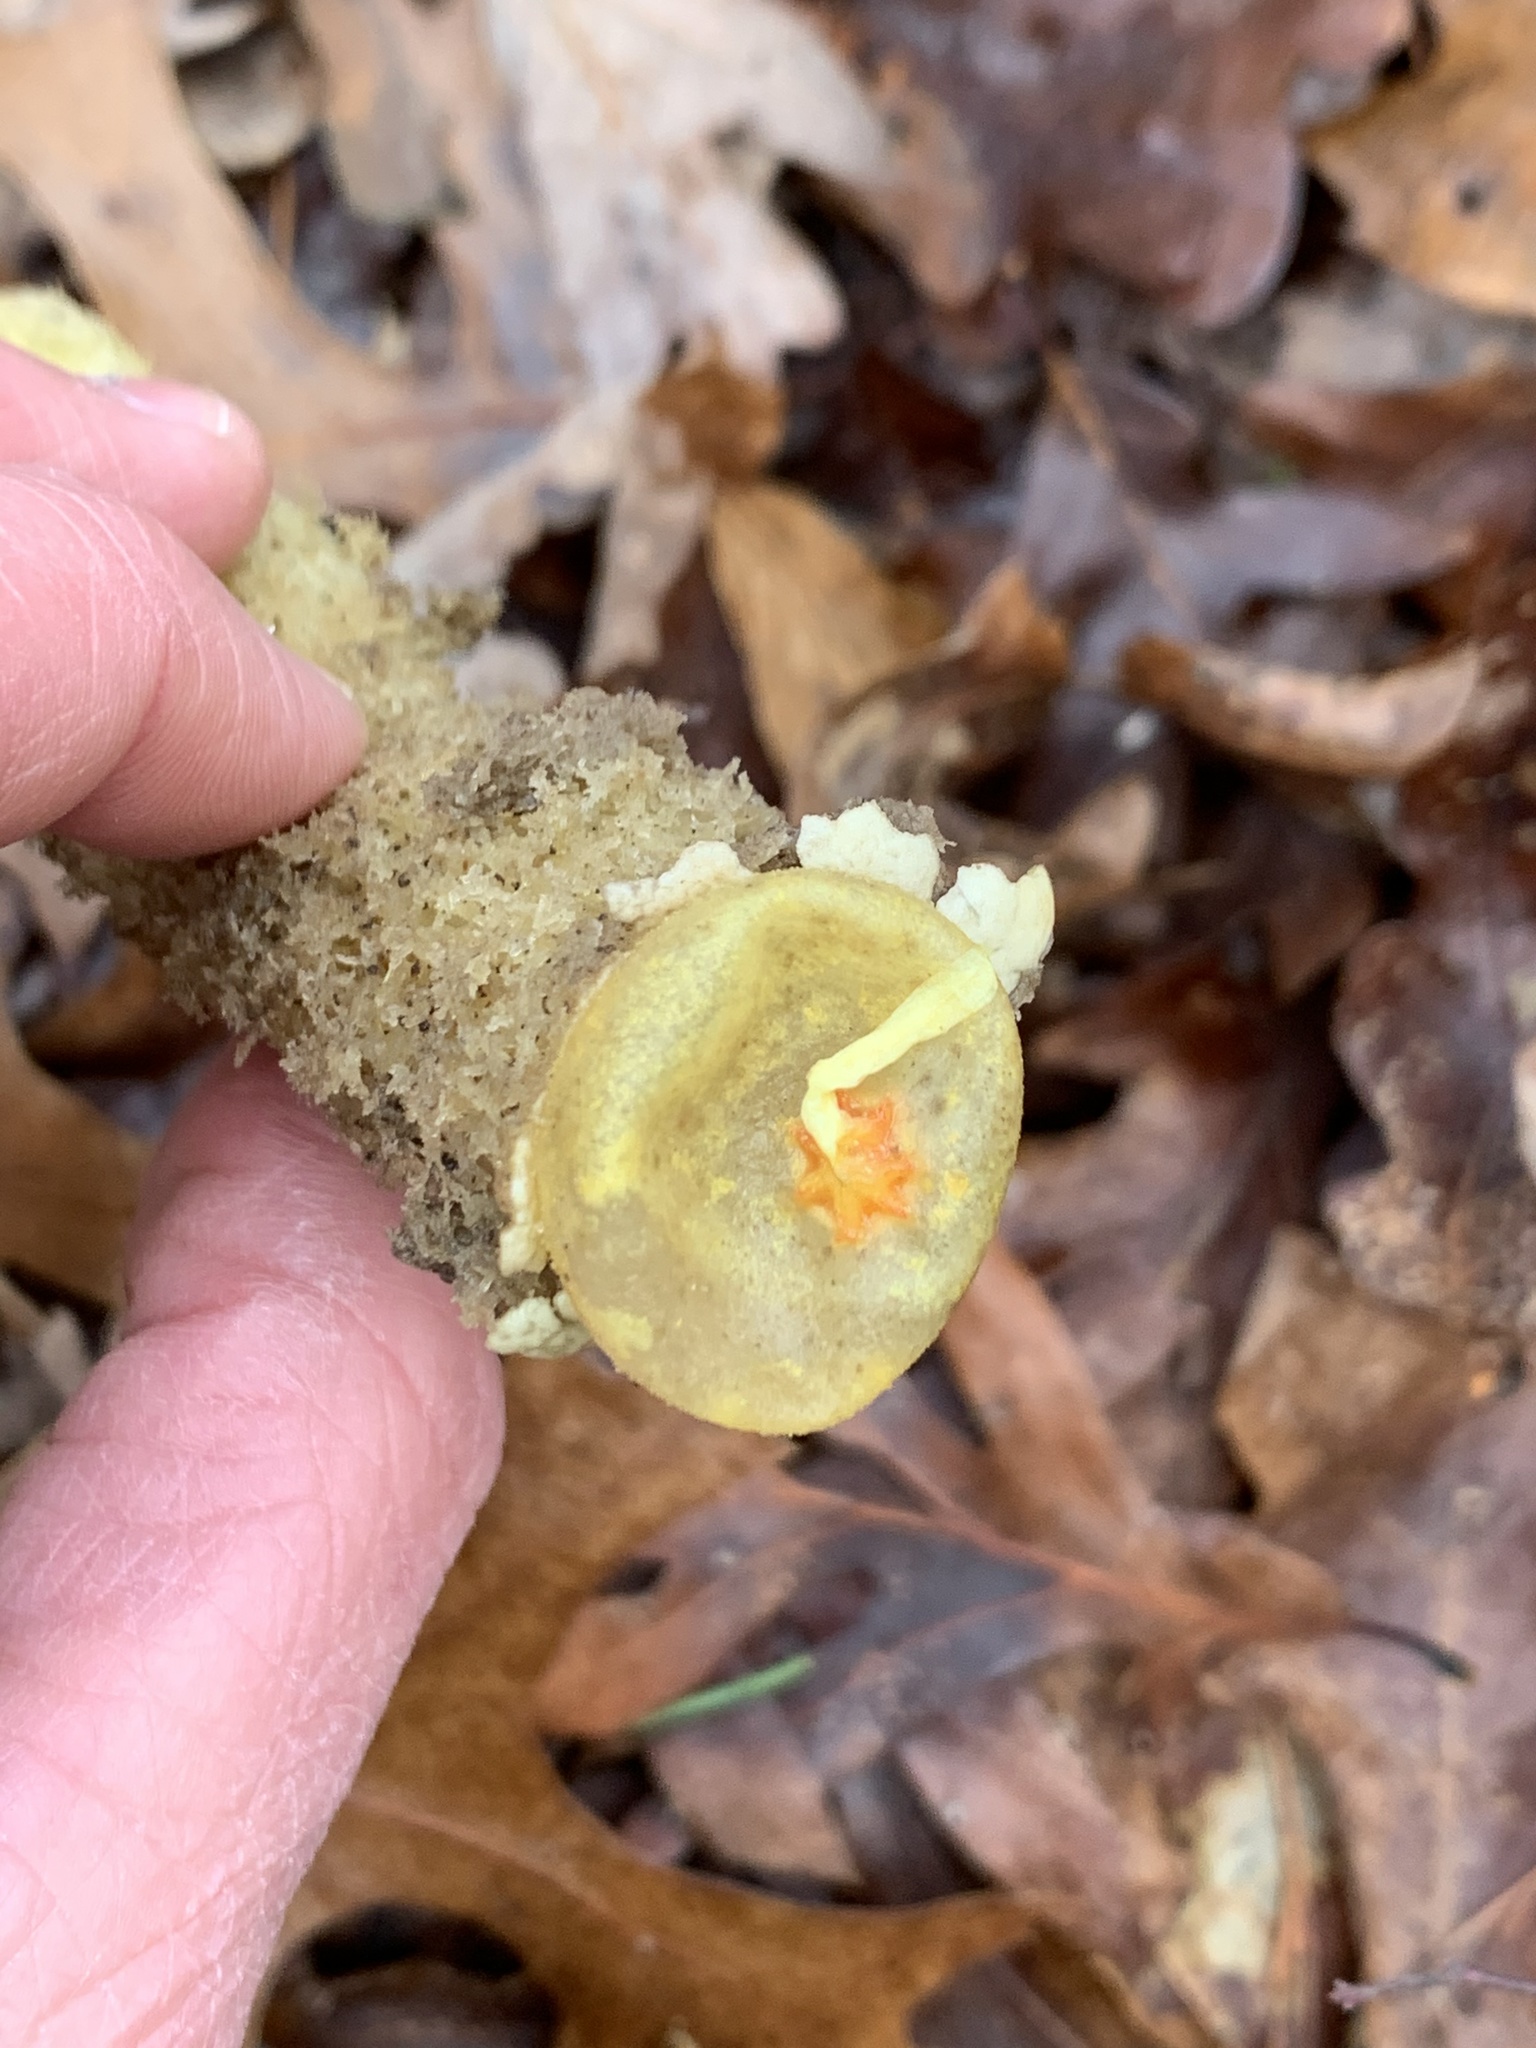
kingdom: Fungi
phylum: Basidiomycota
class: Agaricomycetes
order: Boletales
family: Calostomataceae
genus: Calostoma
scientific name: Calostoma lutescens
